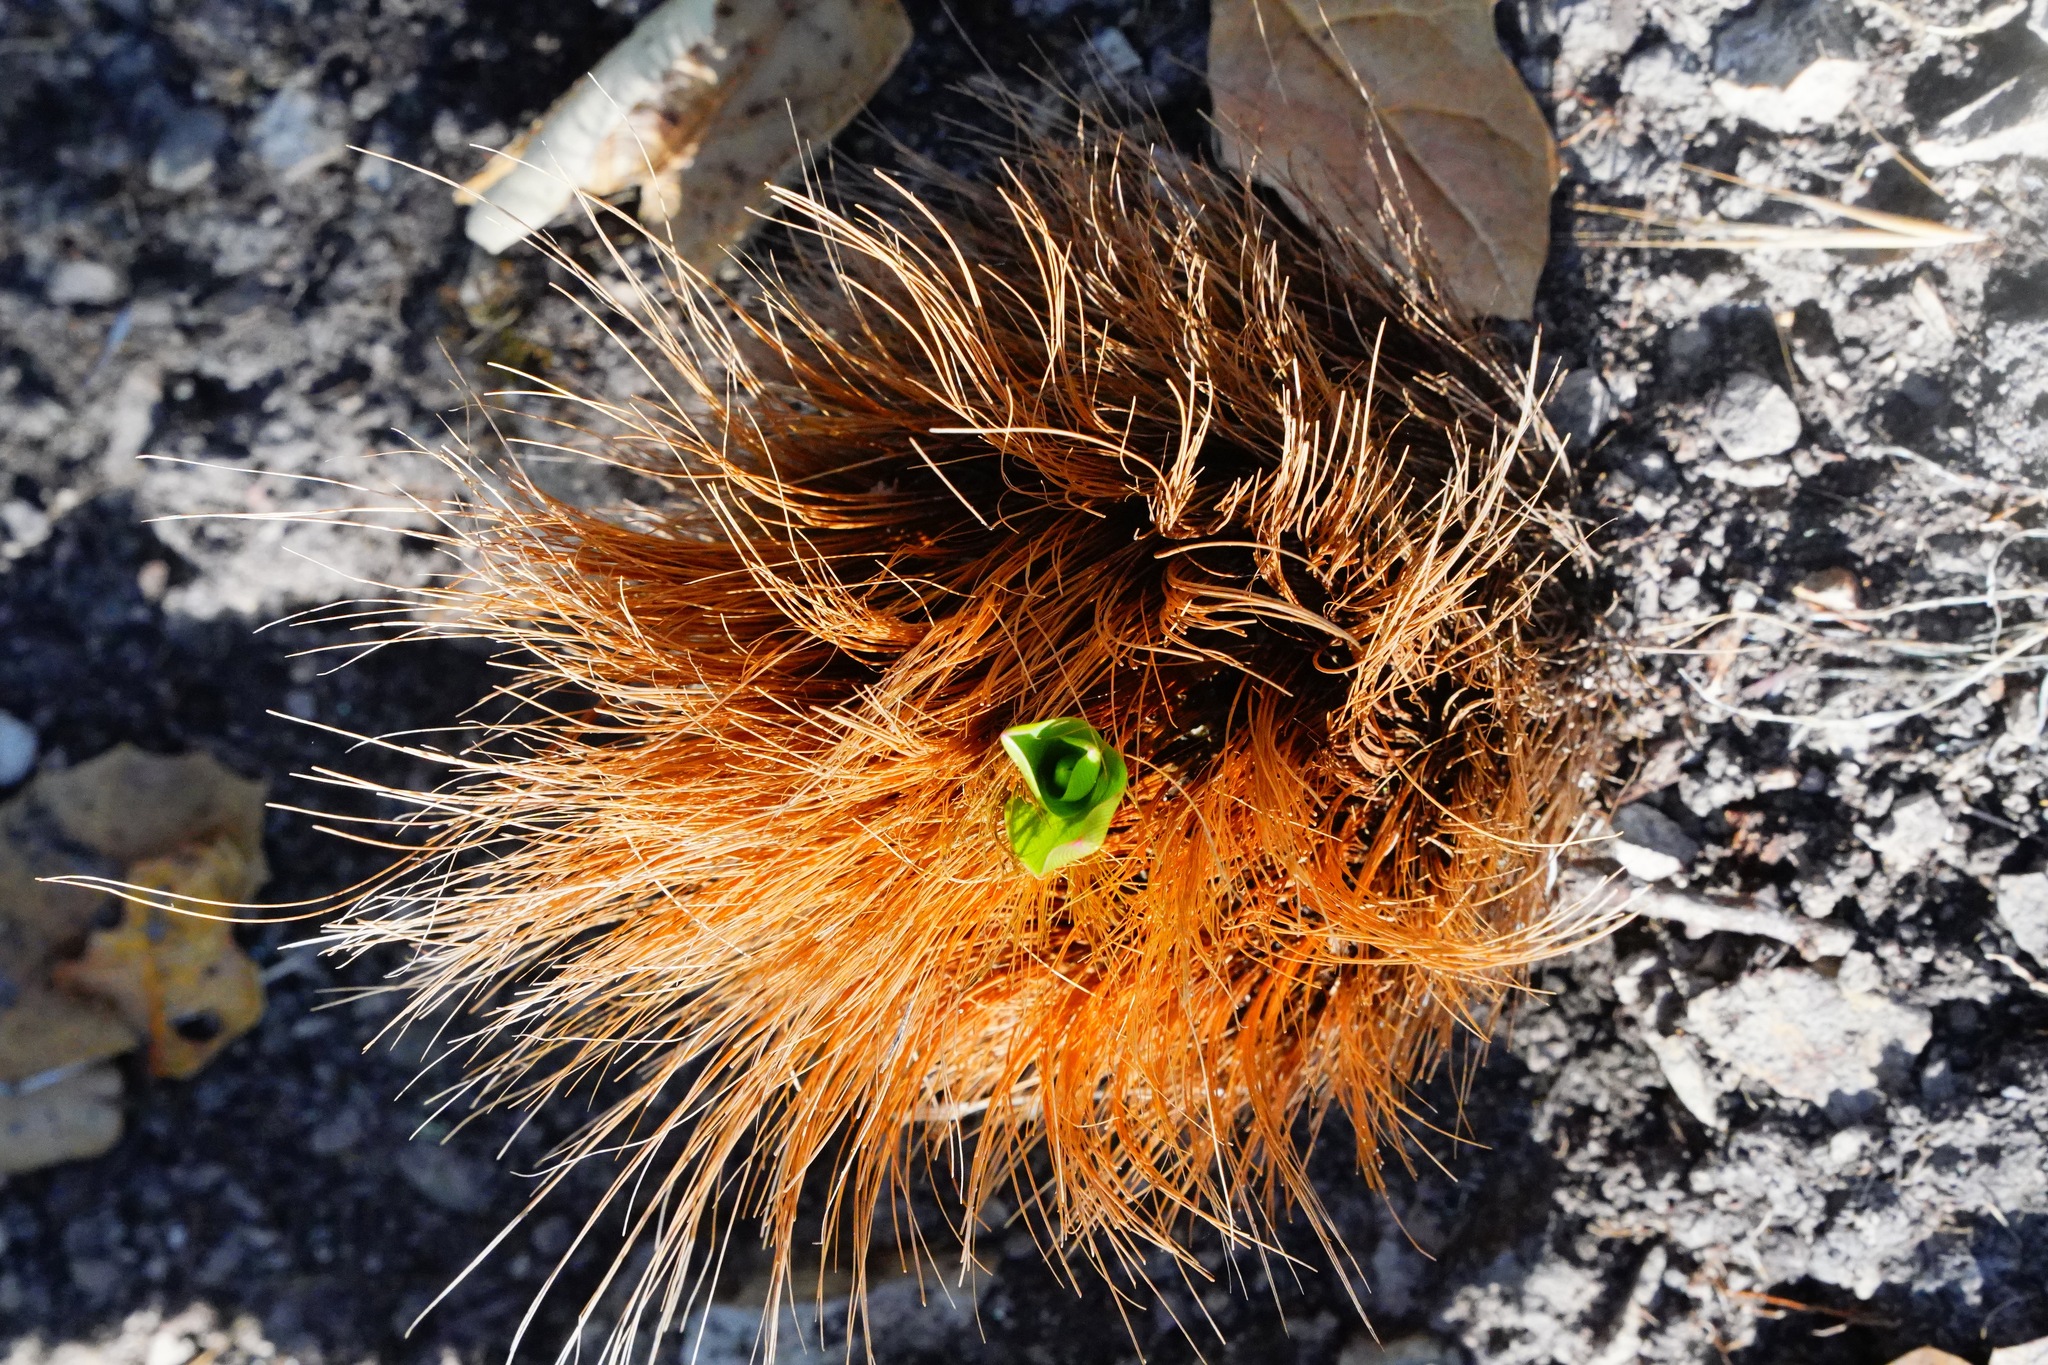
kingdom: Plantae
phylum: Tracheophyta
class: Liliopsida
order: Asparagales
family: Asparagaceae
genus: Chlorogalum
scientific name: Chlorogalum pomeridianum
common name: Amole
